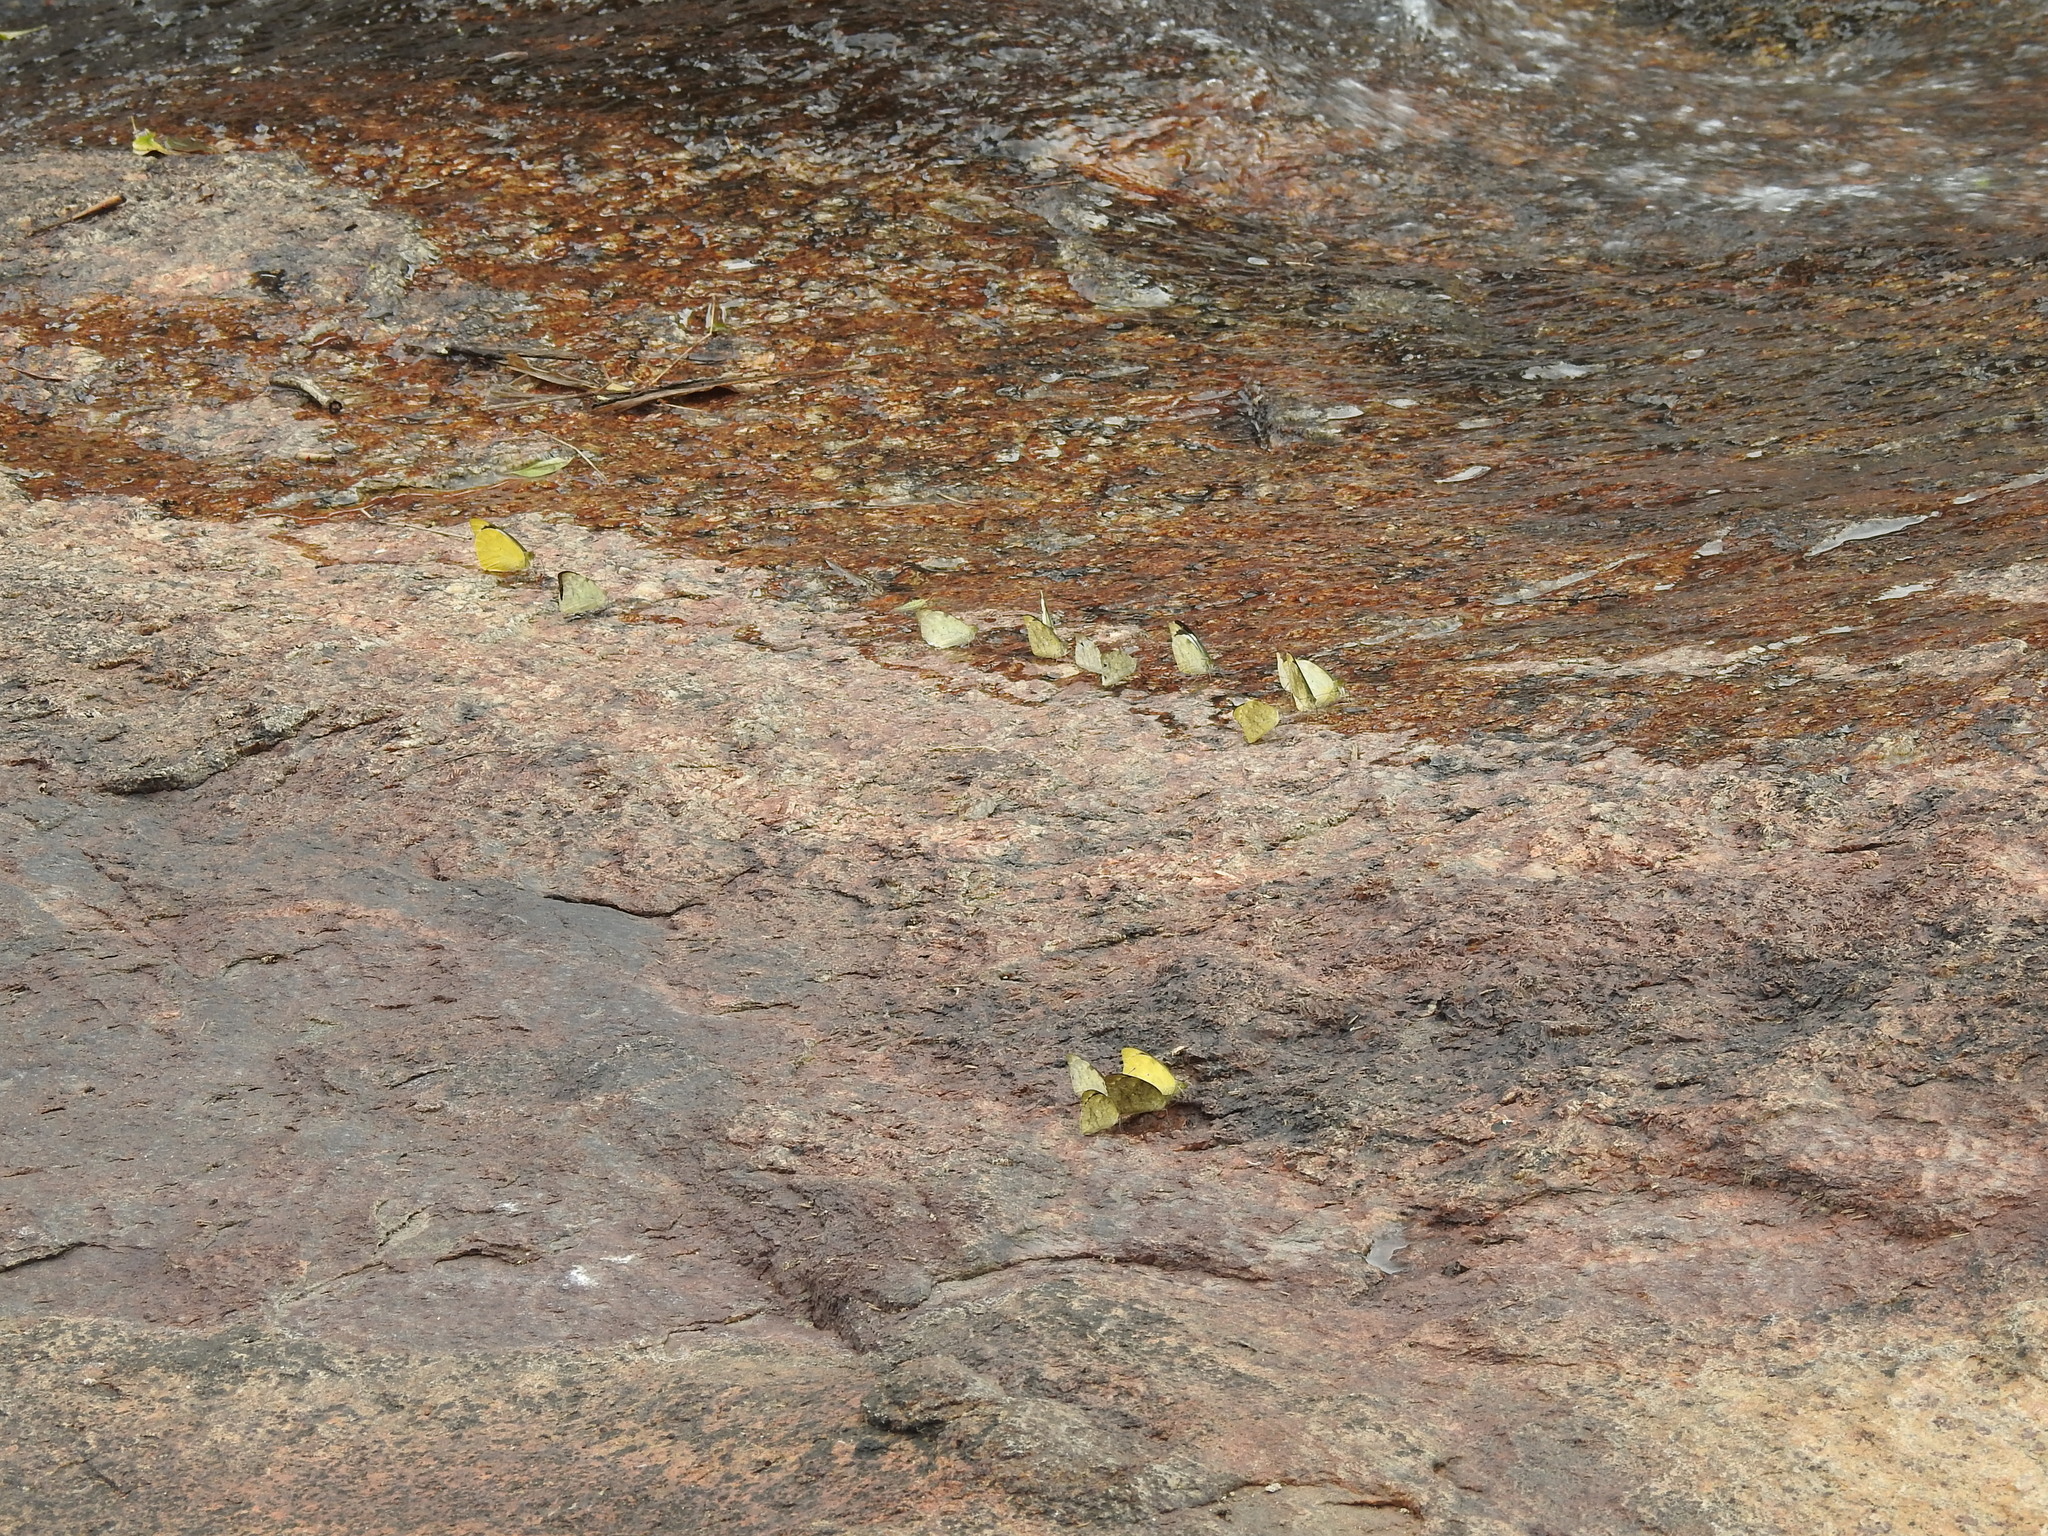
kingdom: Animalia
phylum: Arthropoda
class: Insecta
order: Lepidoptera
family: Pieridae
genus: Appias
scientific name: Appias lalage
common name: Spot puffin
